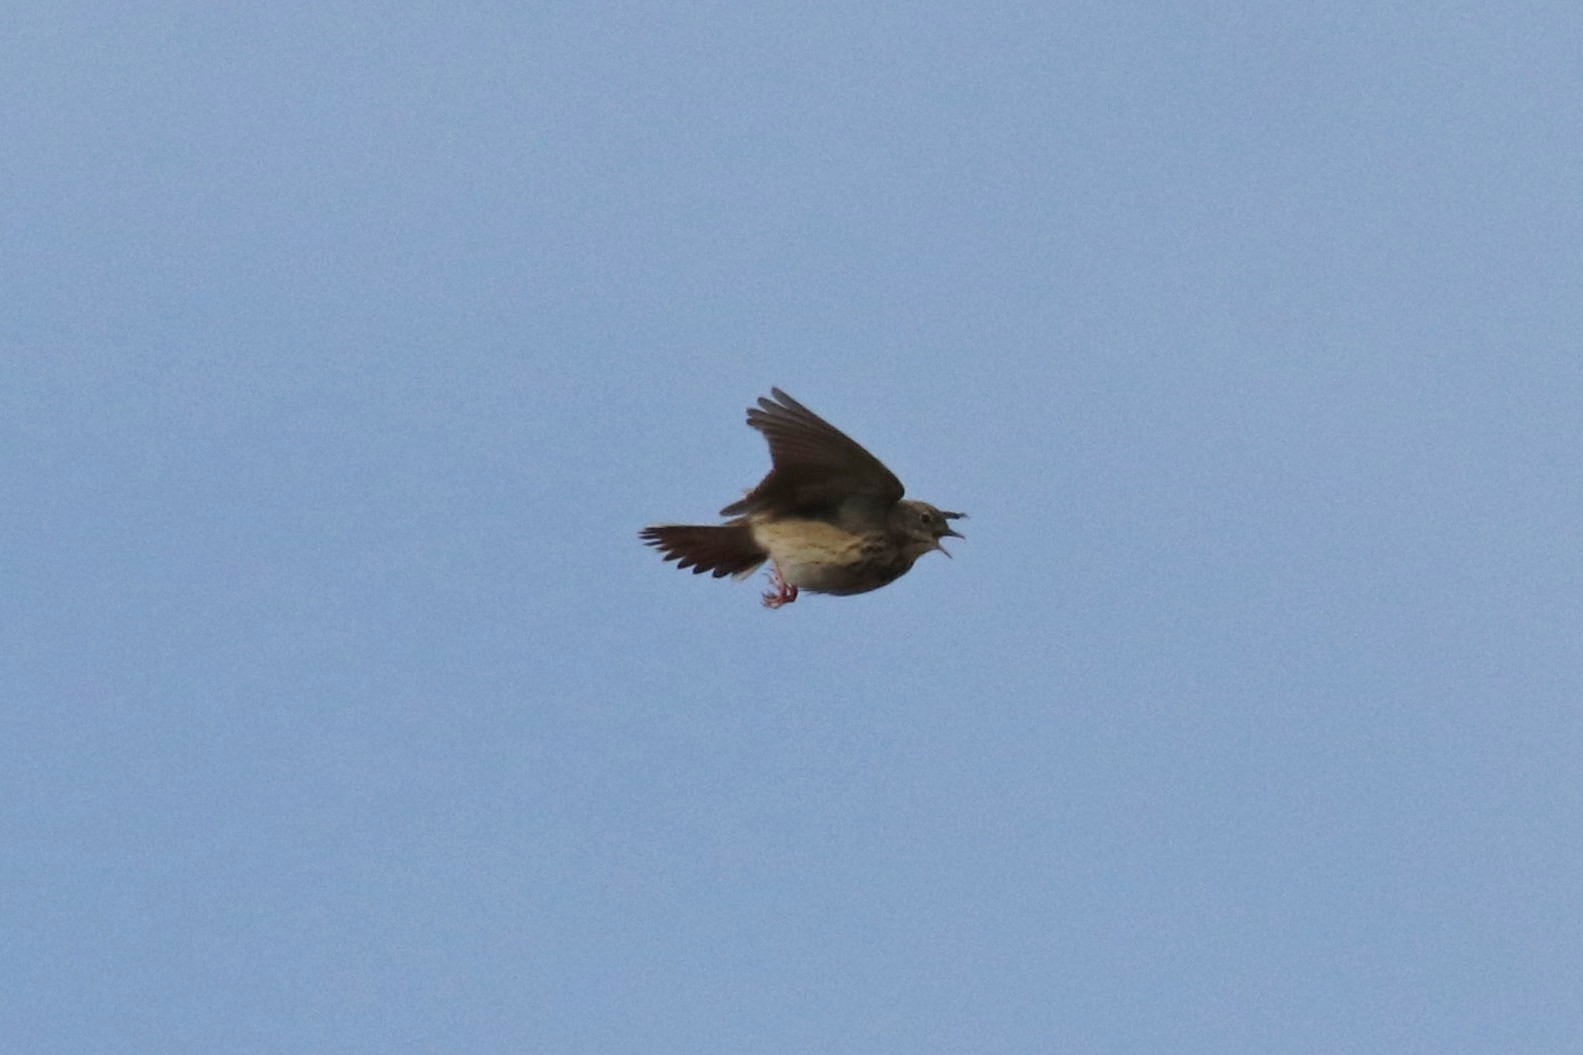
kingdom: Animalia
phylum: Chordata
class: Aves
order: Passeriformes
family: Motacillidae
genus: Anthus
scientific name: Anthus trivialis
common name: Tree pipit
